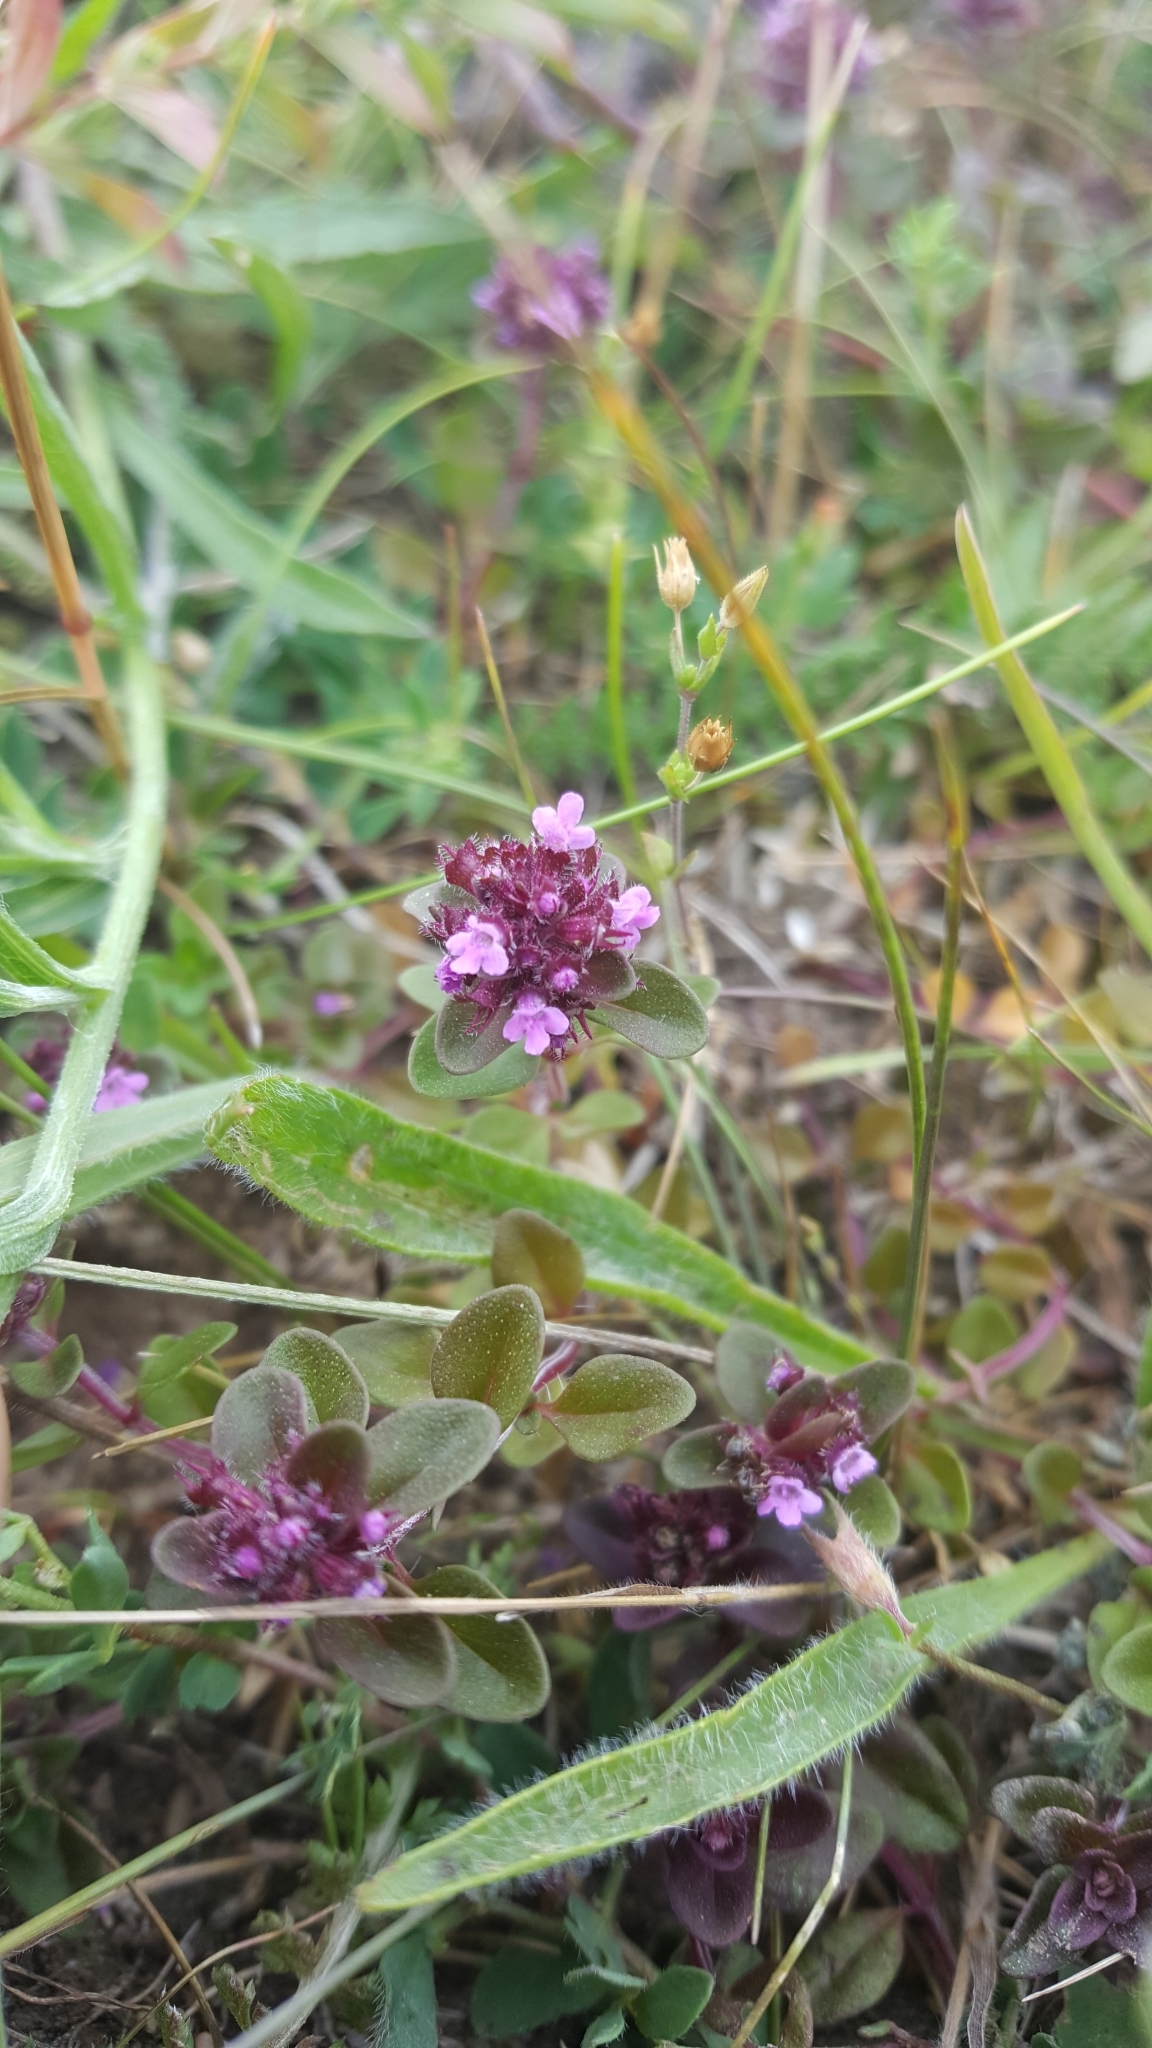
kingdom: Plantae
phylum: Tracheophyta
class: Magnoliopsida
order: Lamiales
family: Lamiaceae
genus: Thymus
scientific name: Thymus pulegioides
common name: Large thyme
